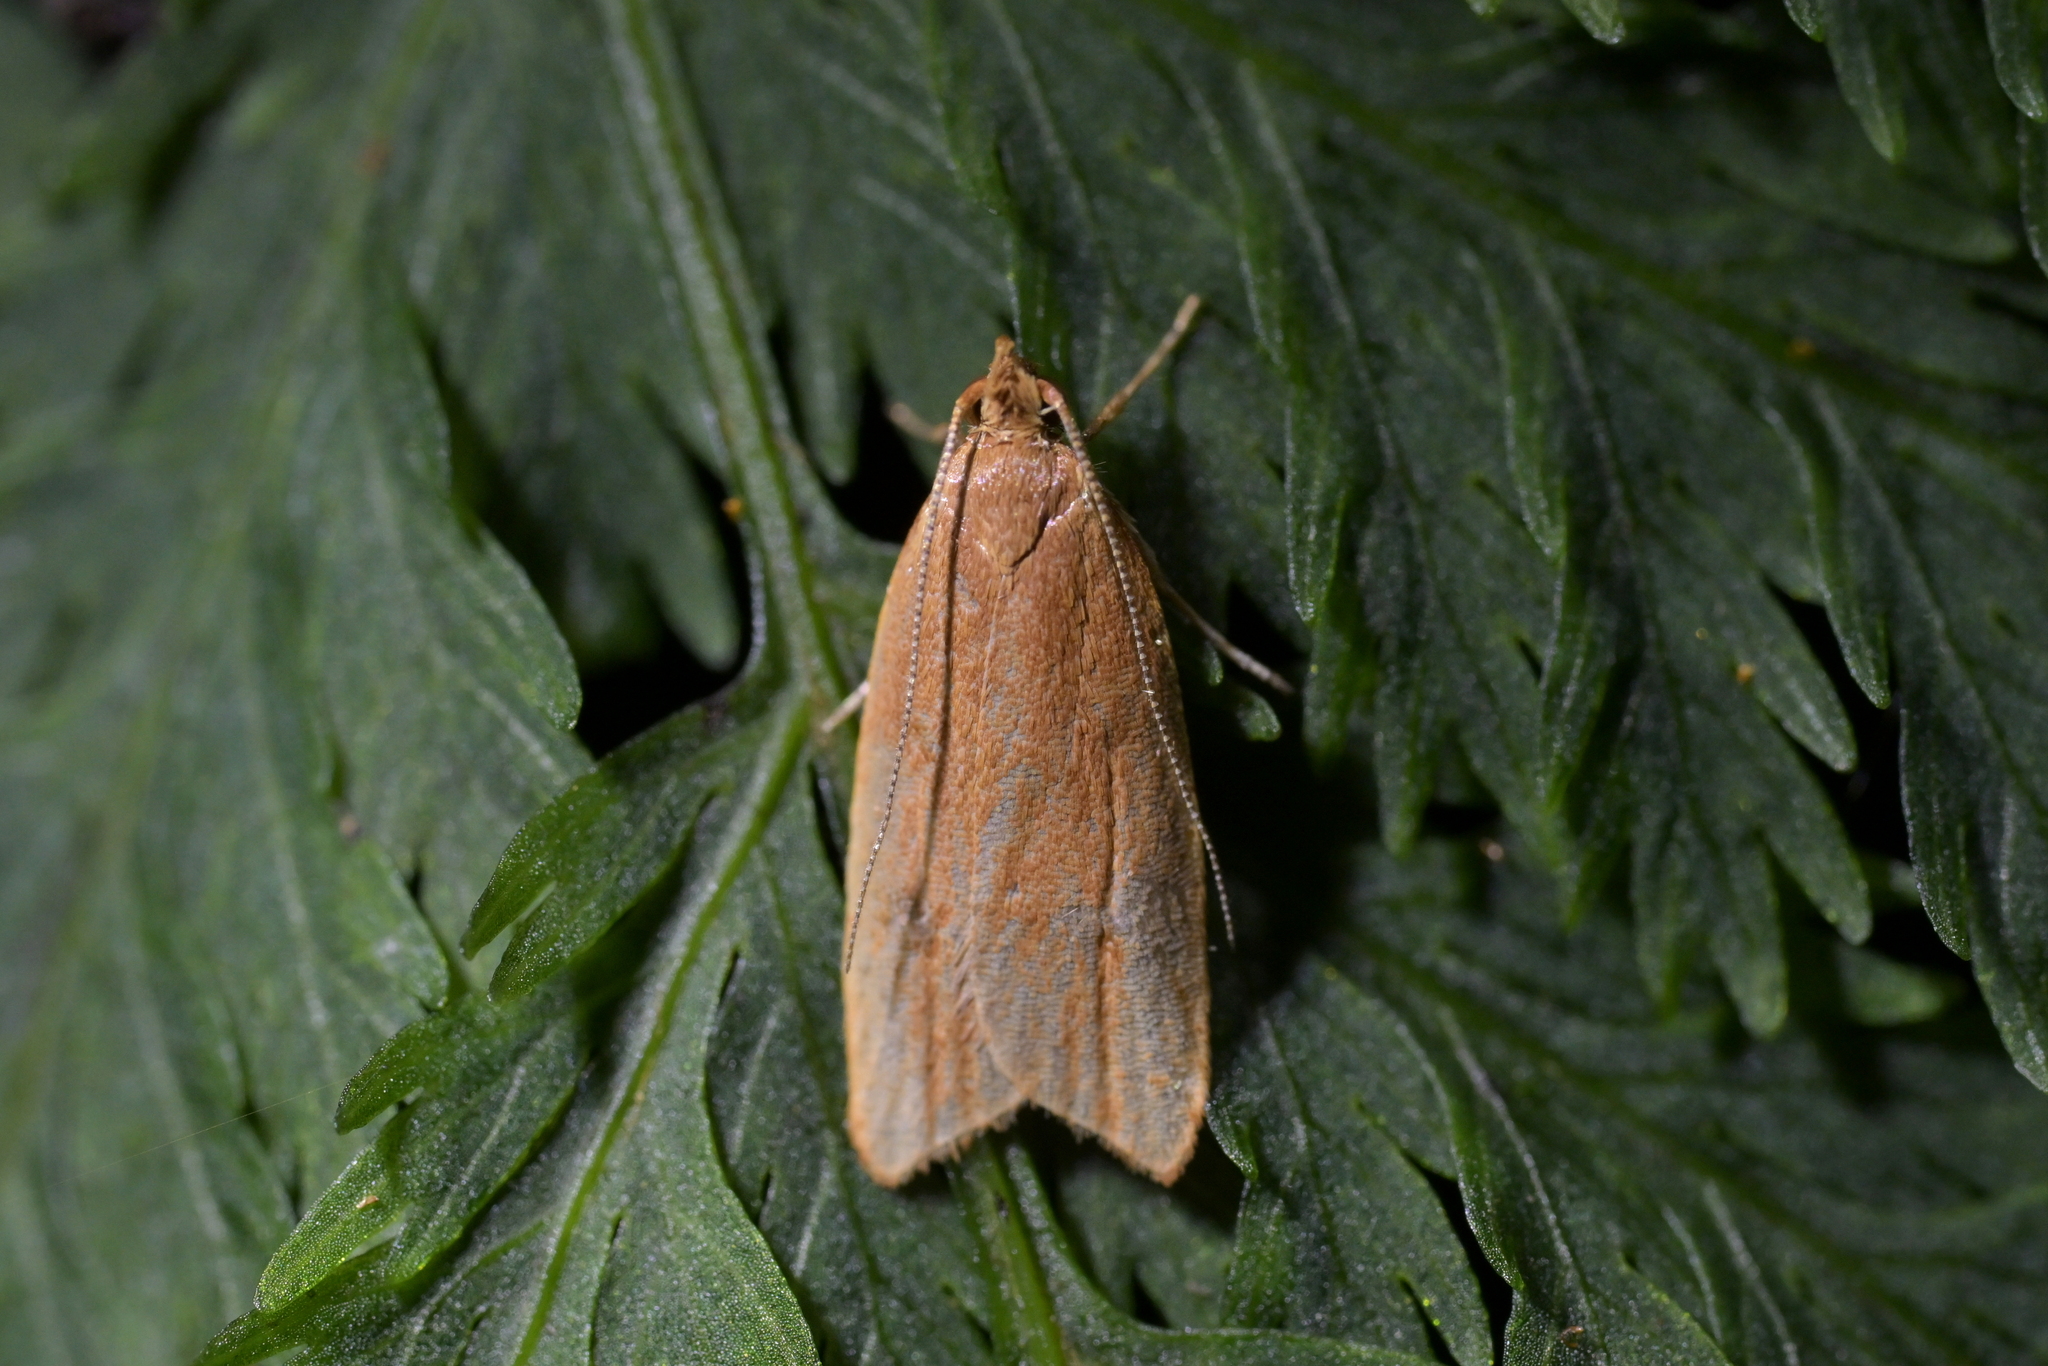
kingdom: Animalia
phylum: Arthropoda
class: Insecta
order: Lepidoptera
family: Oecophoridae
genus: Gymnobathra
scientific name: Gymnobathra sarcoxantha
